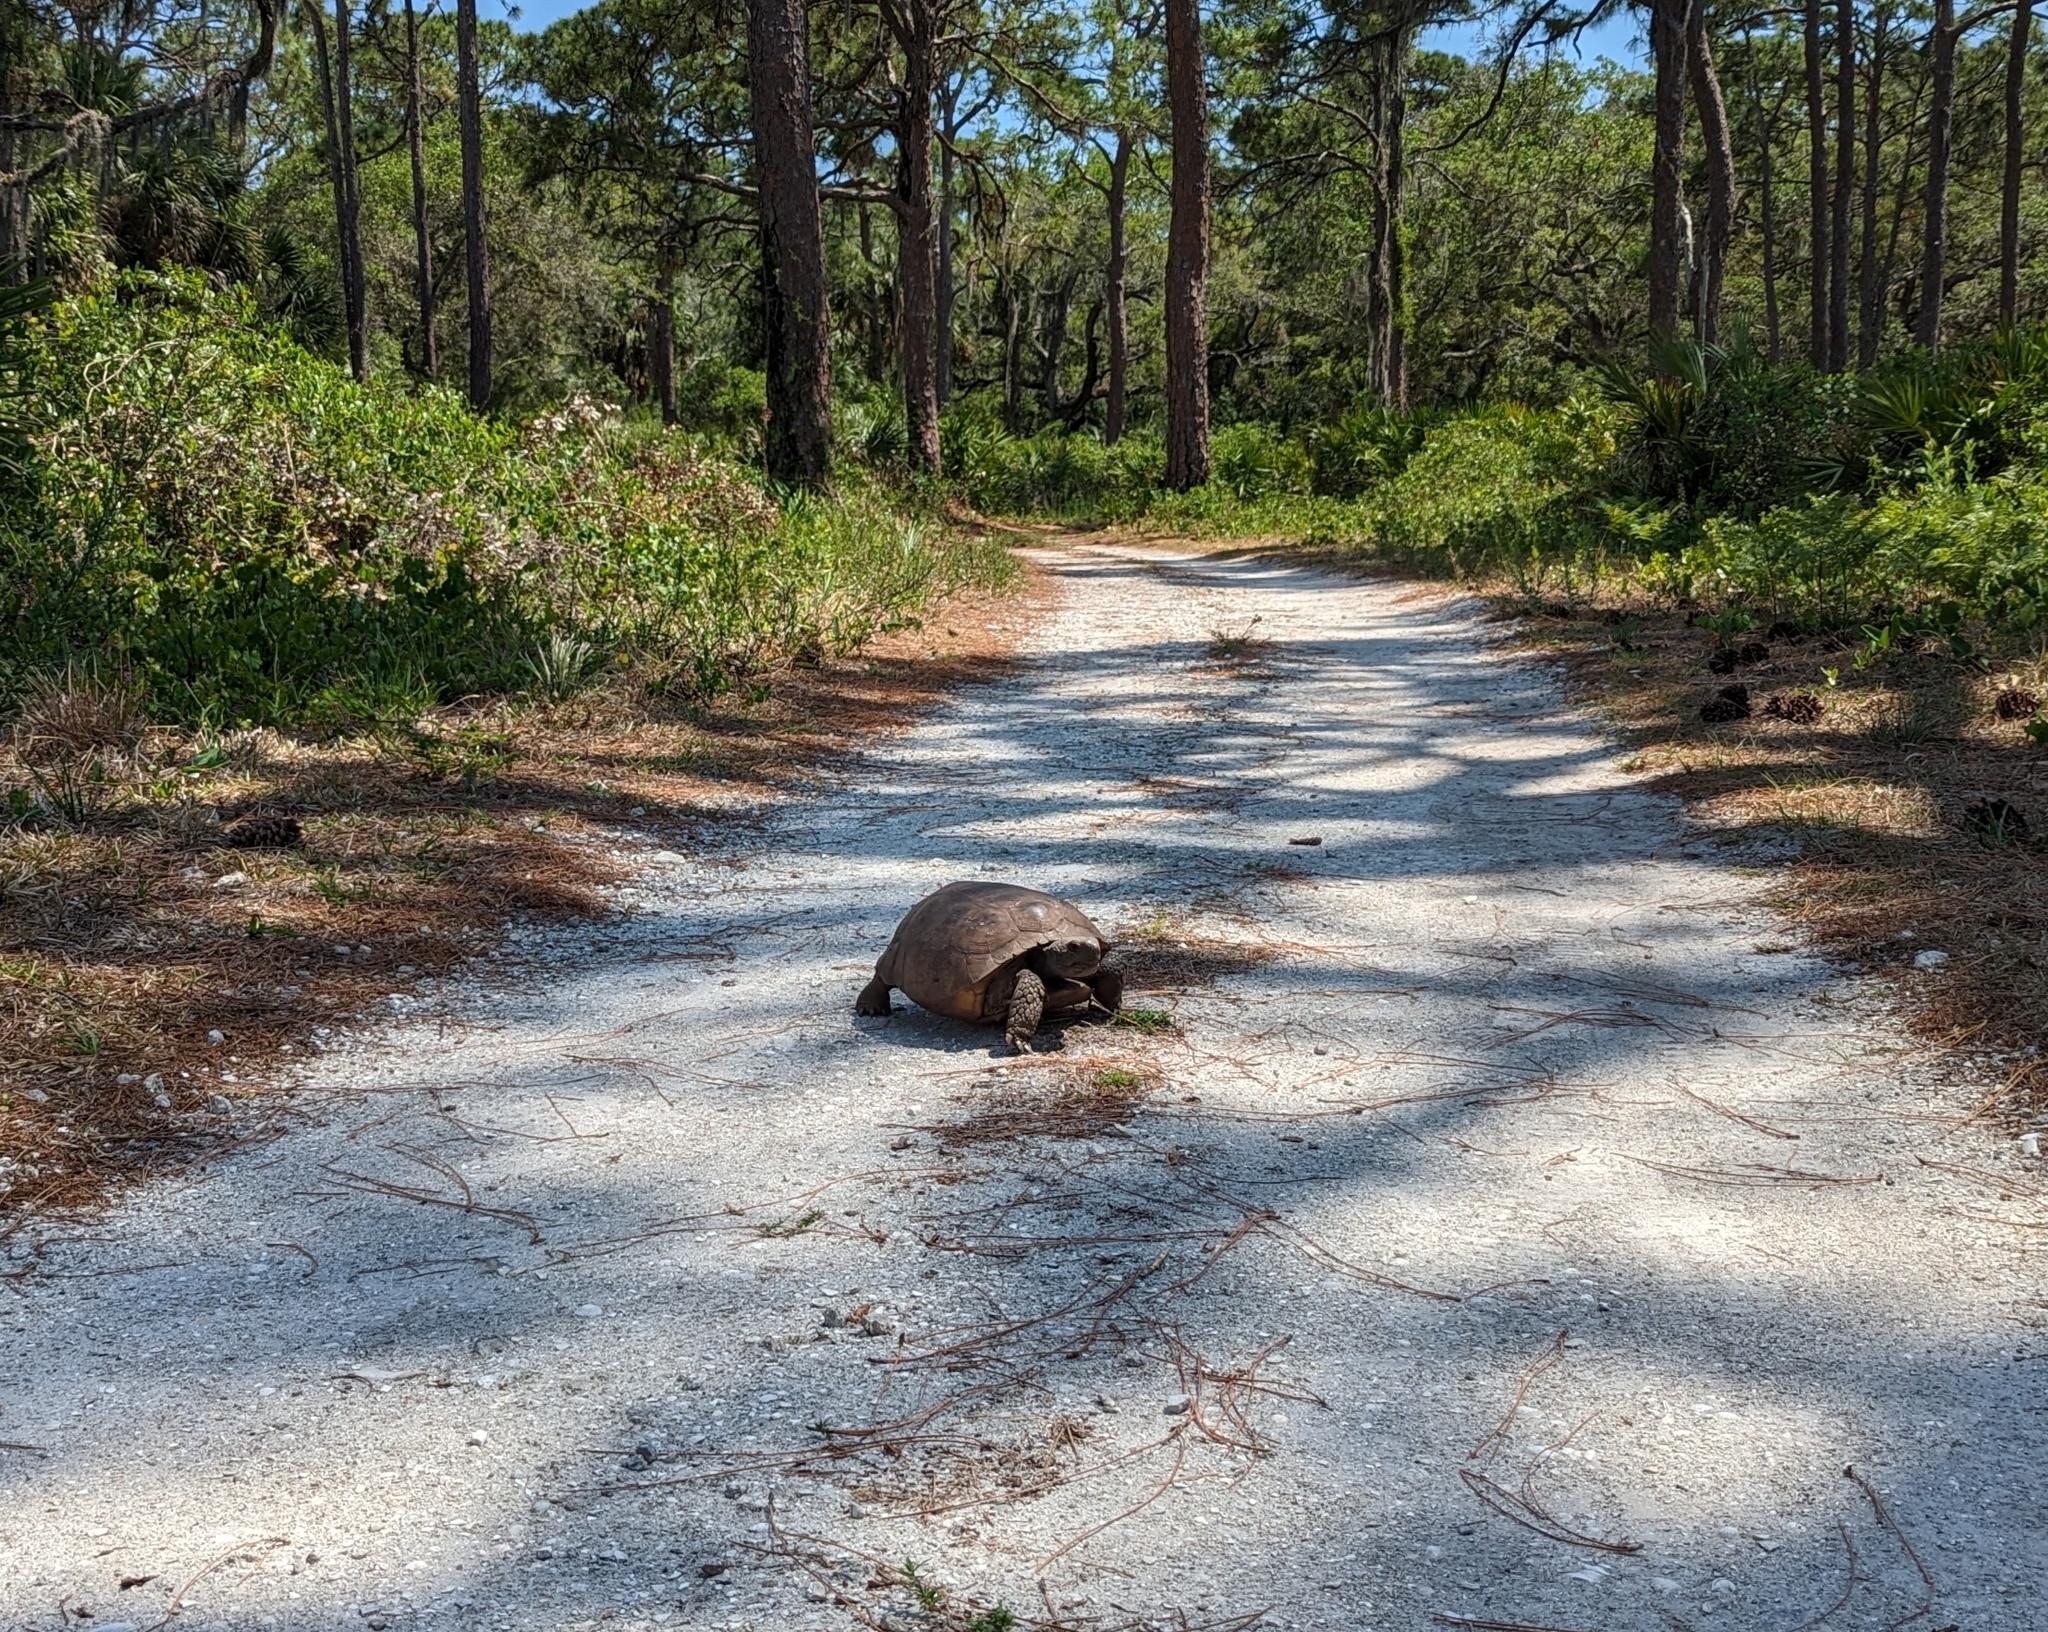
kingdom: Animalia
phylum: Chordata
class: Testudines
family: Testudinidae
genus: Gopherus
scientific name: Gopherus polyphemus
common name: Florida gopher tortoise
